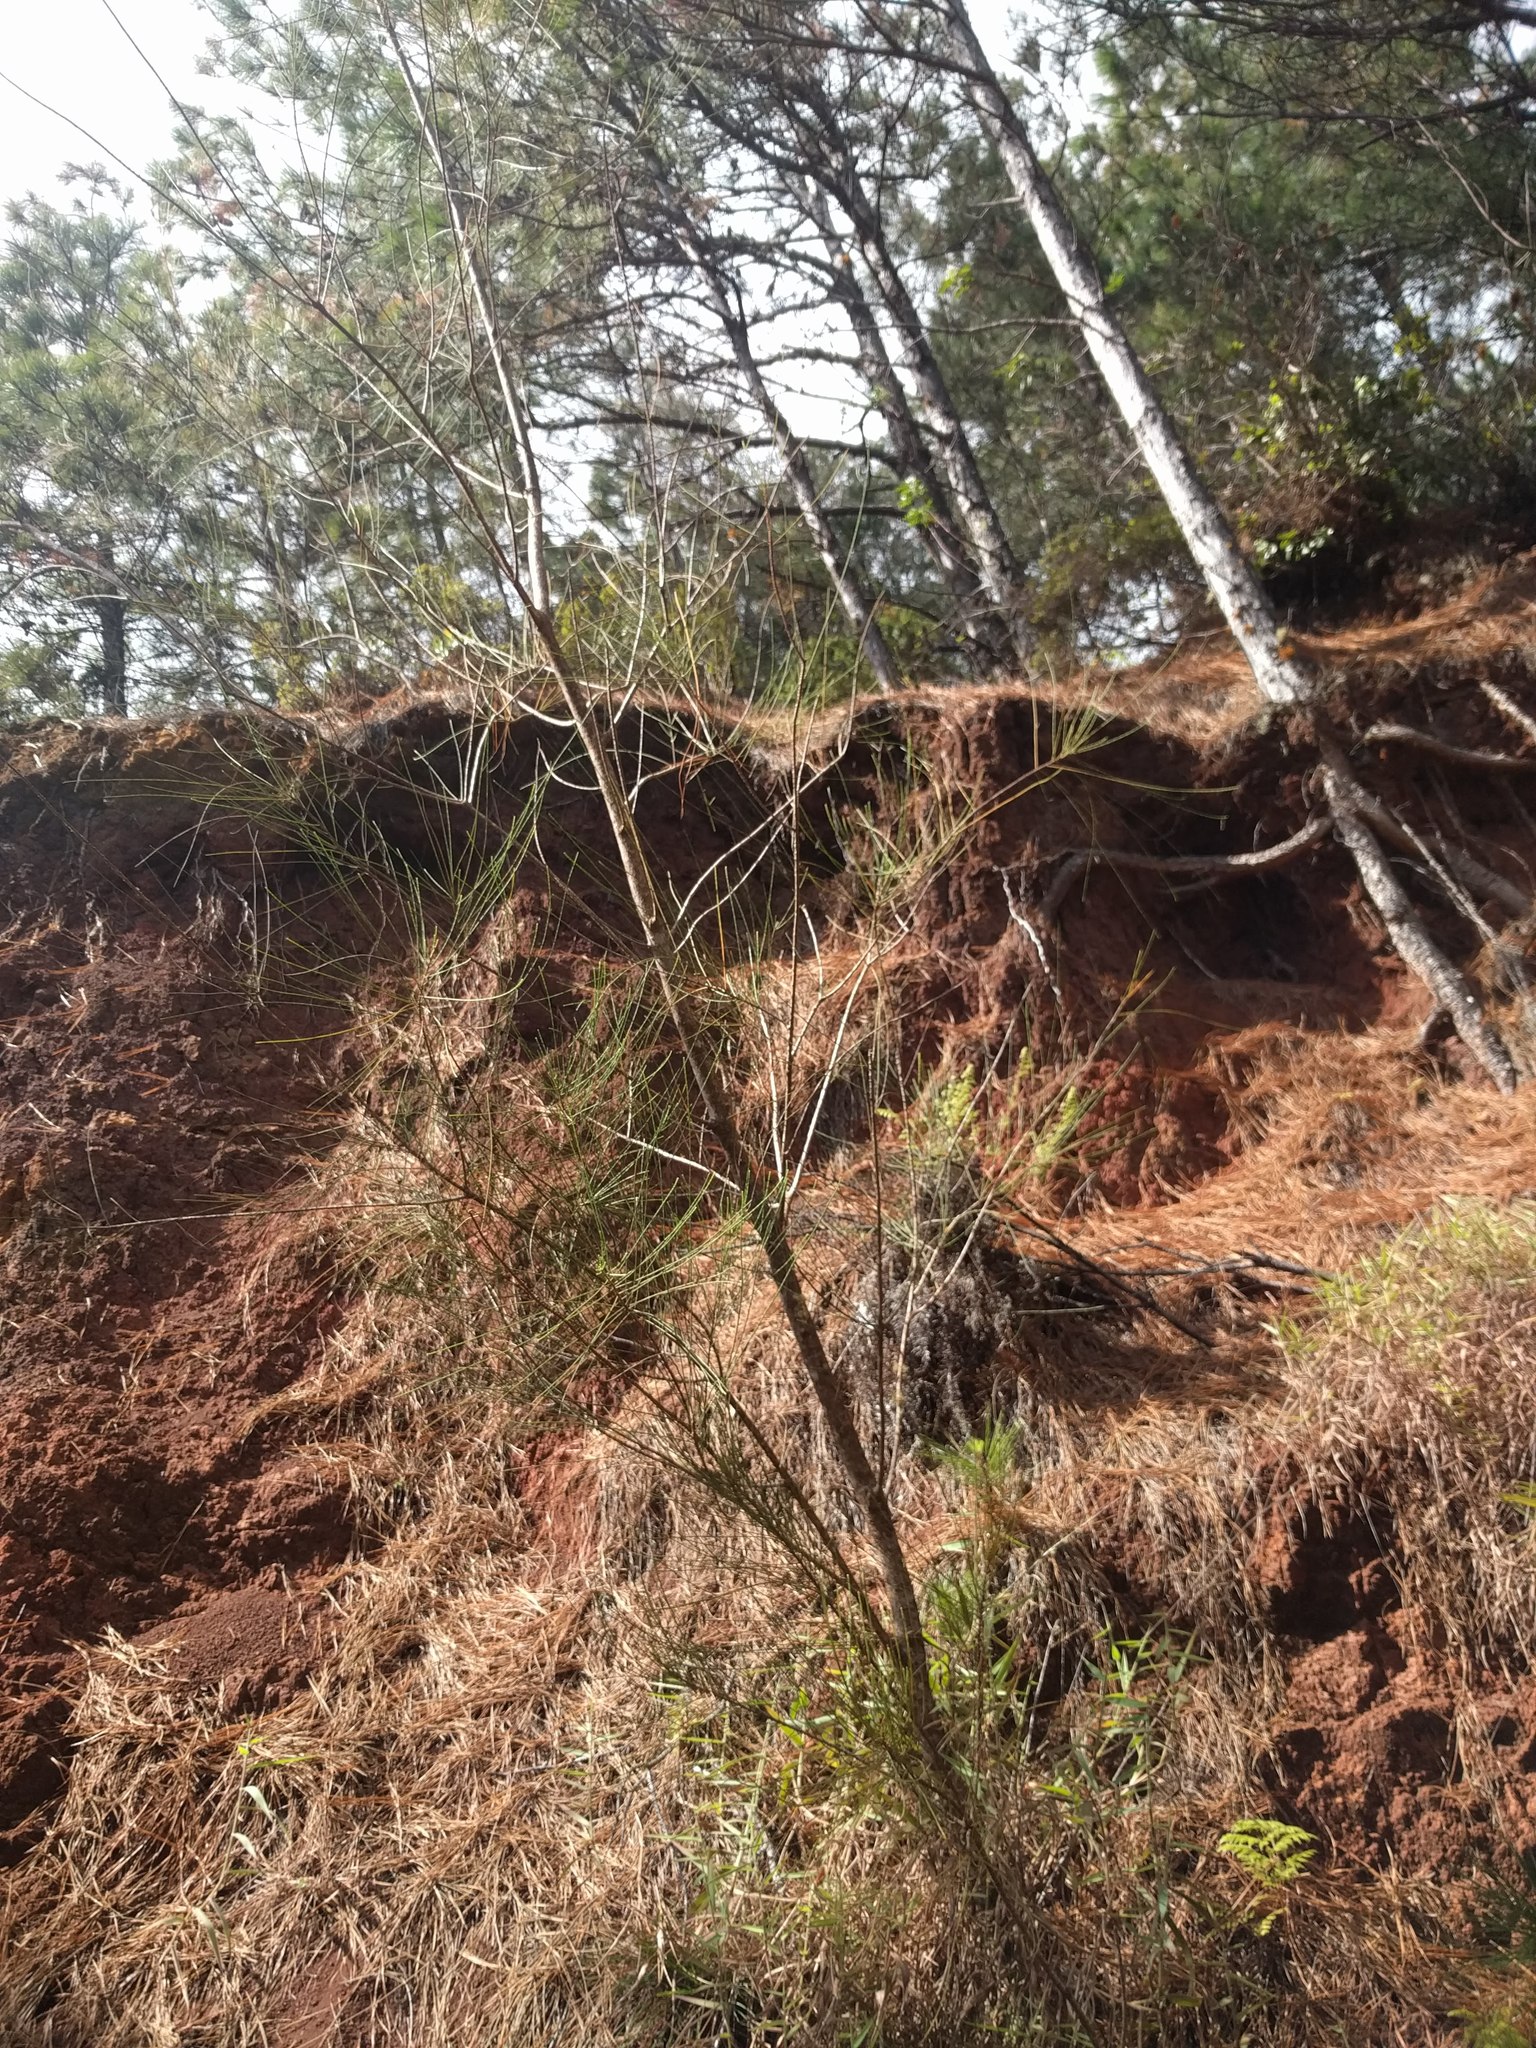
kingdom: Plantae
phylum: Tracheophyta
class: Magnoliopsida
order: Fagales
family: Casuarinaceae
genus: Casuarina
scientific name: Casuarina equisetifolia
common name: Beach sheoak
